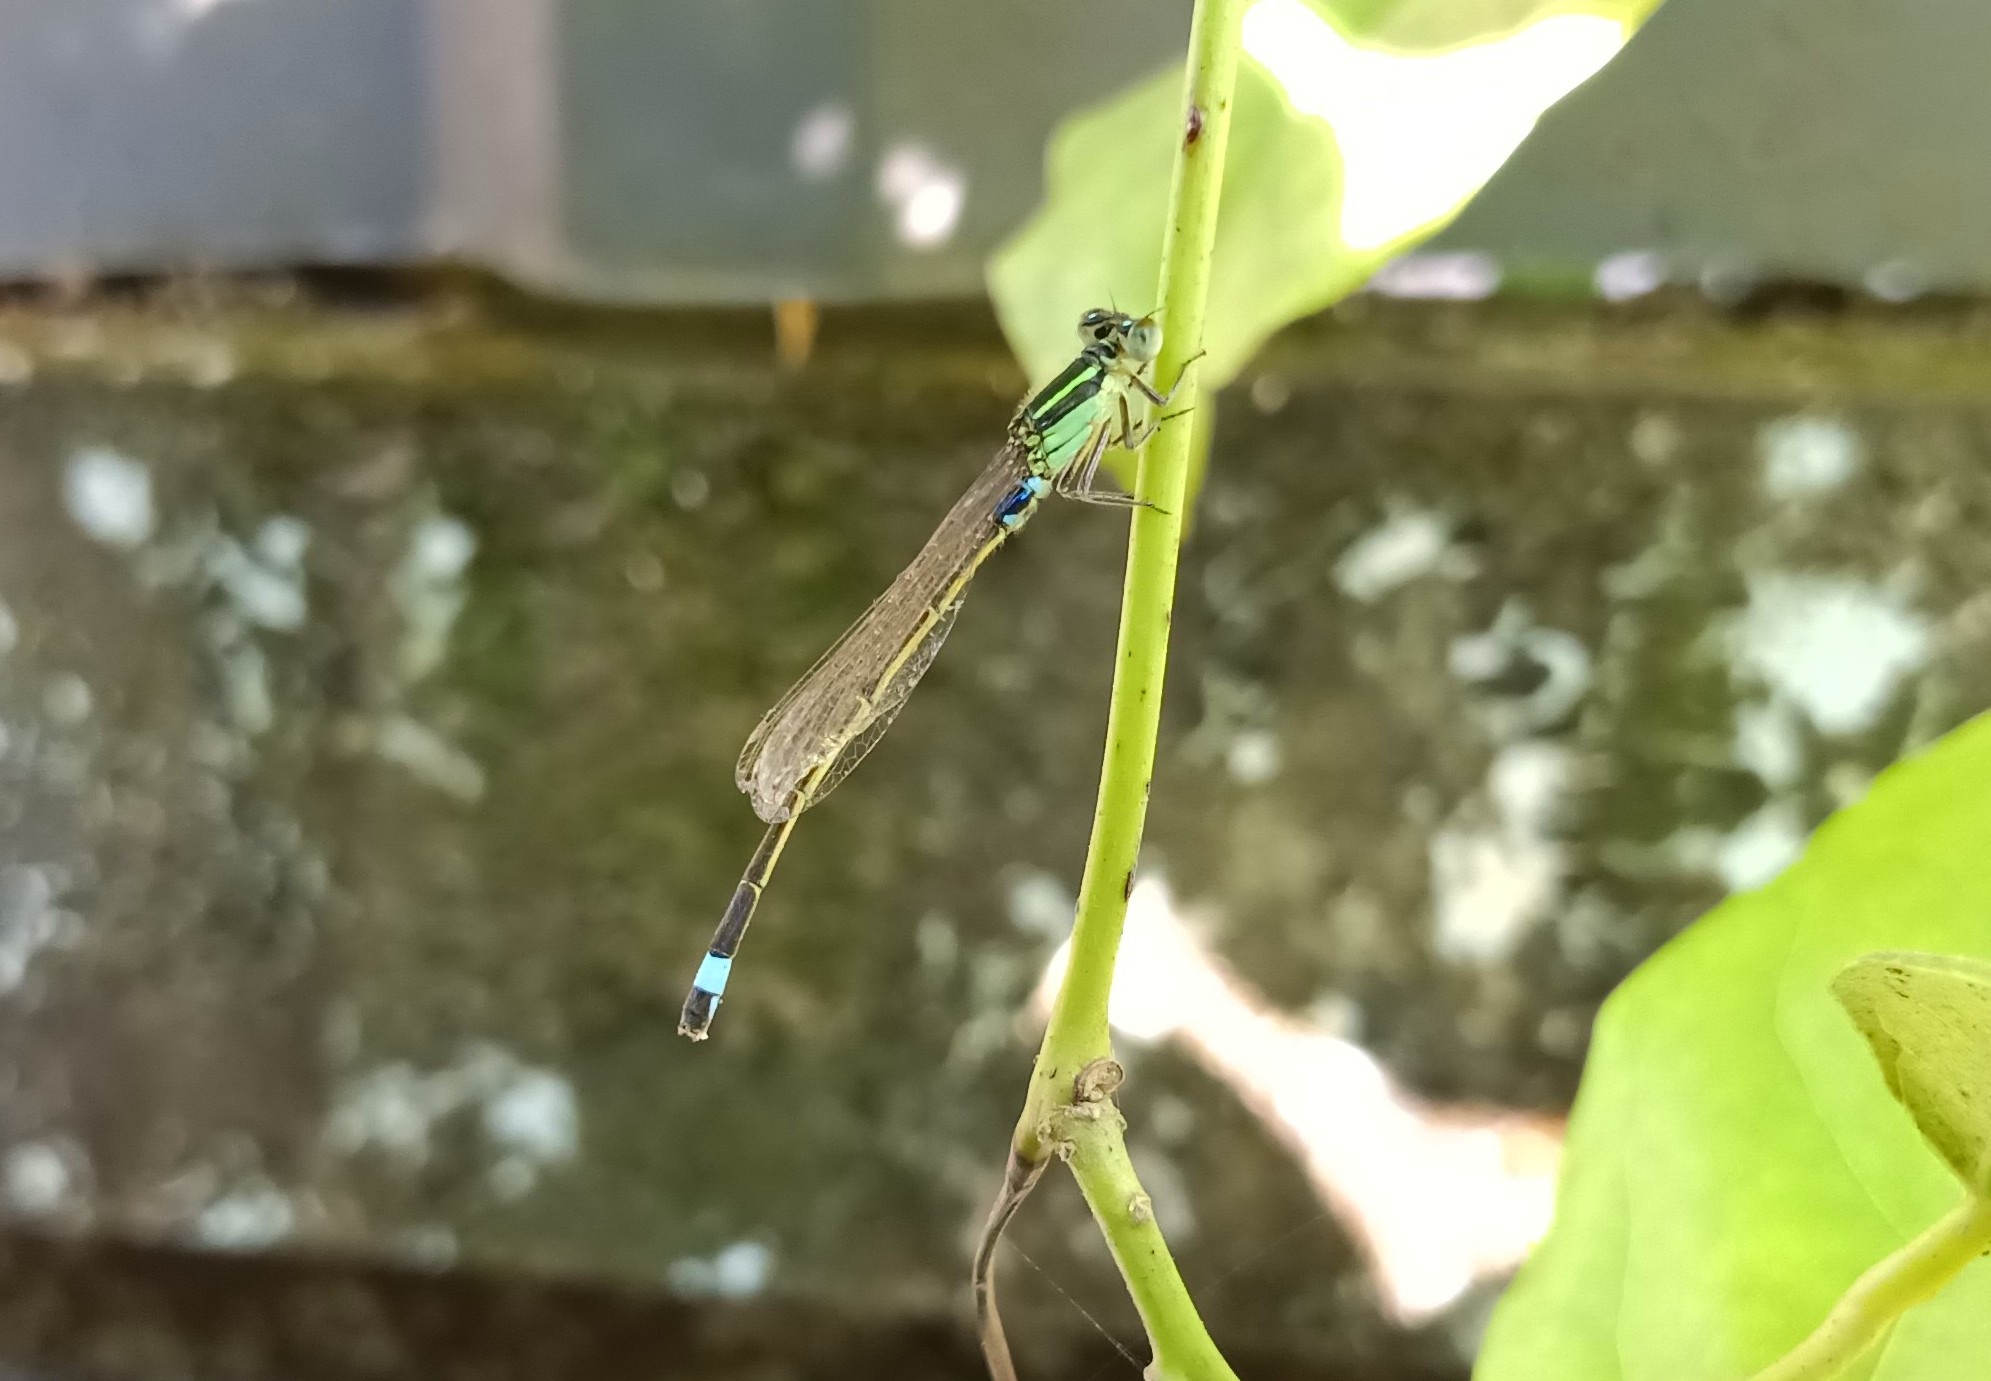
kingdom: Animalia
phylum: Arthropoda
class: Insecta
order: Odonata
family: Coenagrionidae
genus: Ischnura
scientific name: Ischnura senegalensis
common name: Tropical bluetail
